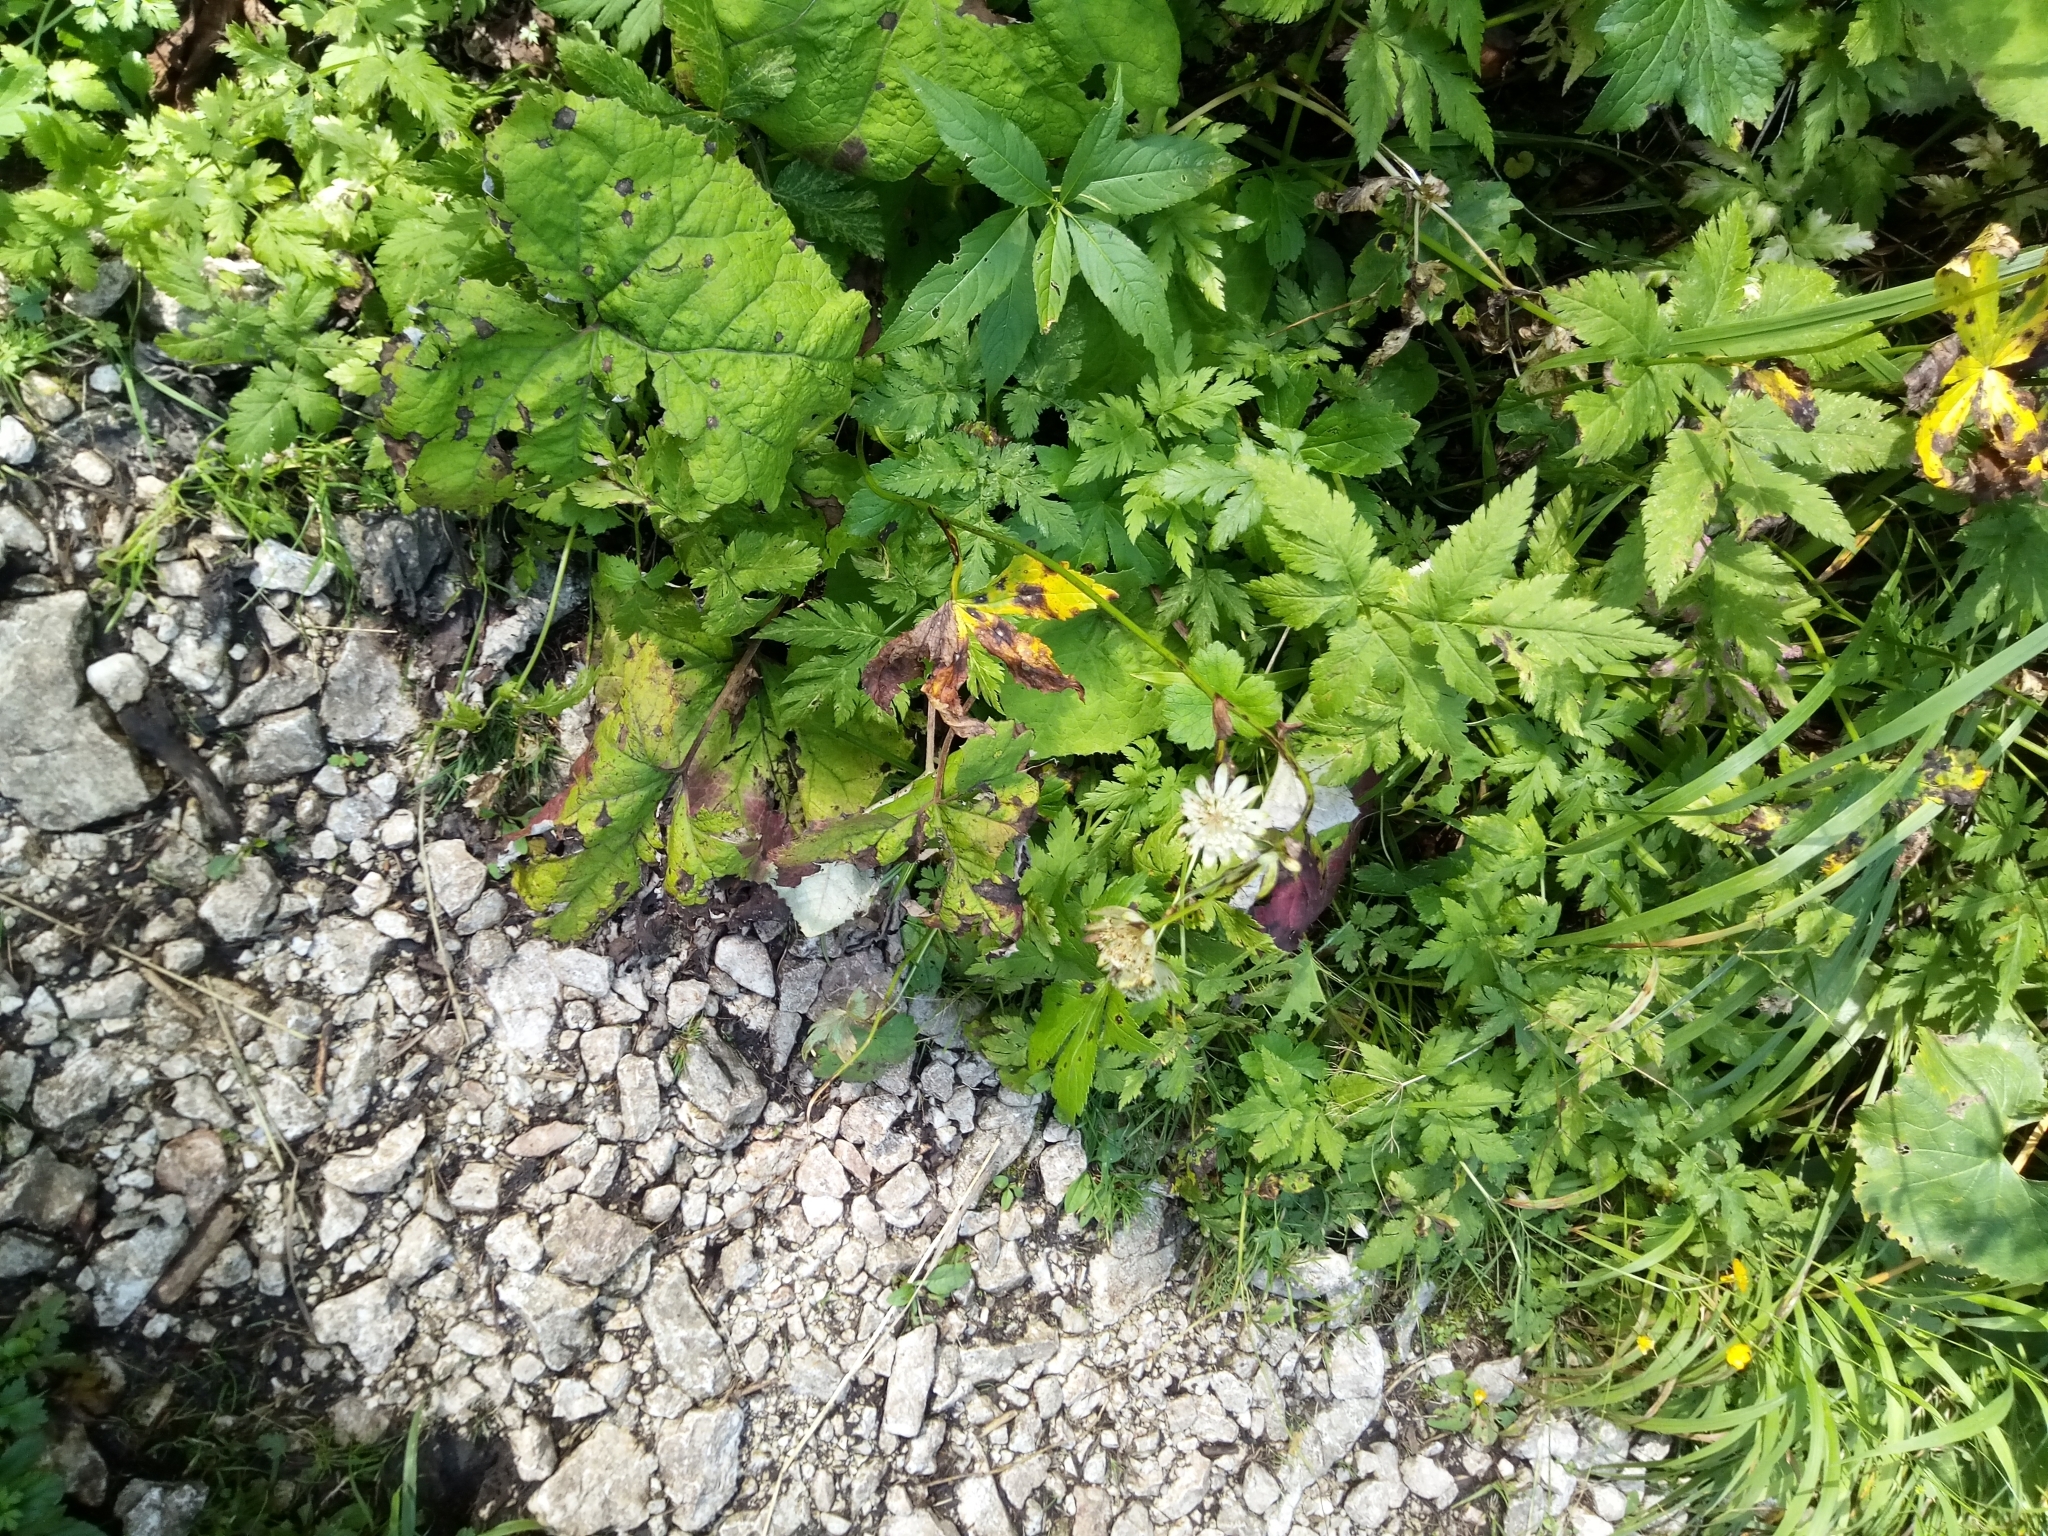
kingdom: Plantae
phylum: Tracheophyta
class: Magnoliopsida
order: Apiales
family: Apiaceae
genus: Astrantia
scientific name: Astrantia major
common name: Greater masterwort
